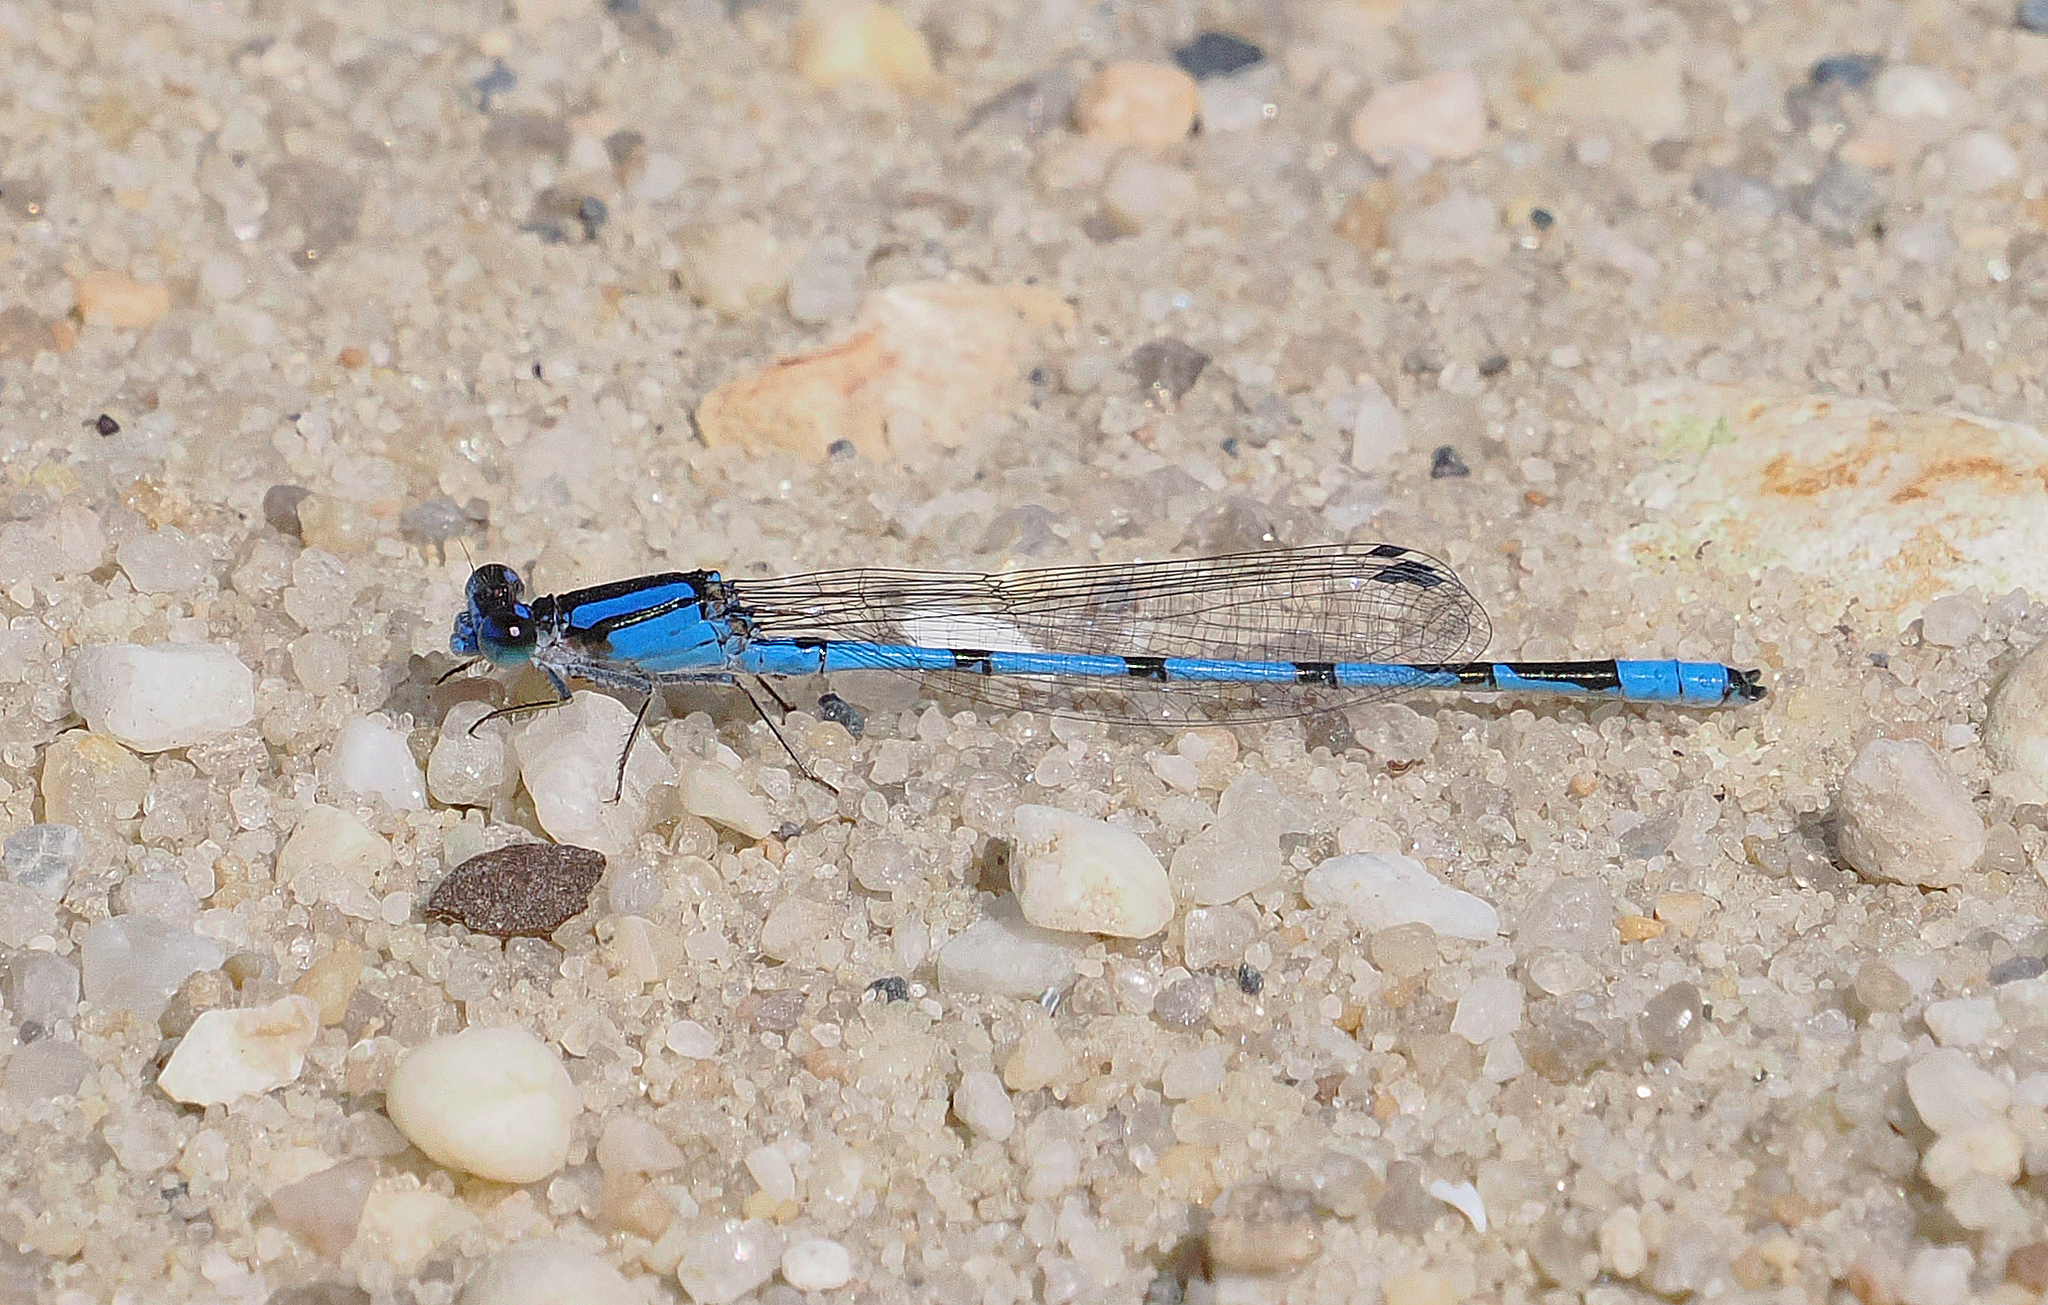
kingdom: Animalia
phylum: Arthropoda
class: Insecta
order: Odonata
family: Coenagrionidae
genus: Enallagma
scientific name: Enallagma civile
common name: Damselfly
